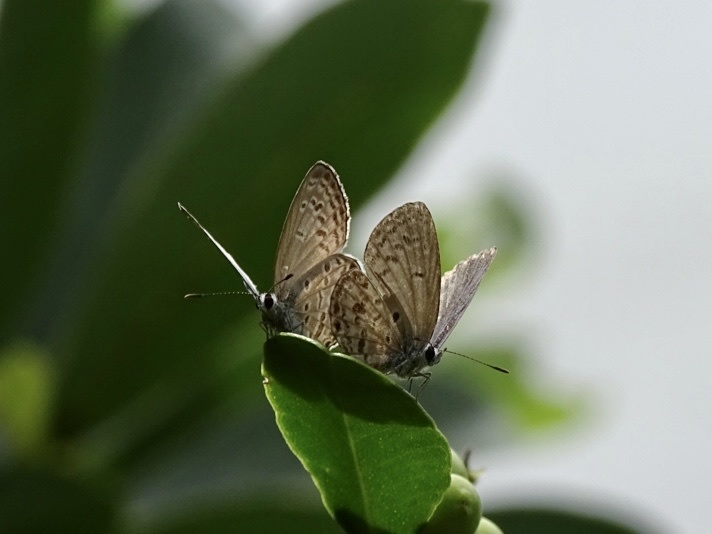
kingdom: Animalia
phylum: Arthropoda
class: Insecta
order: Lepidoptera
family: Lycaenidae
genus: Chilades
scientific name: Chilades laius
